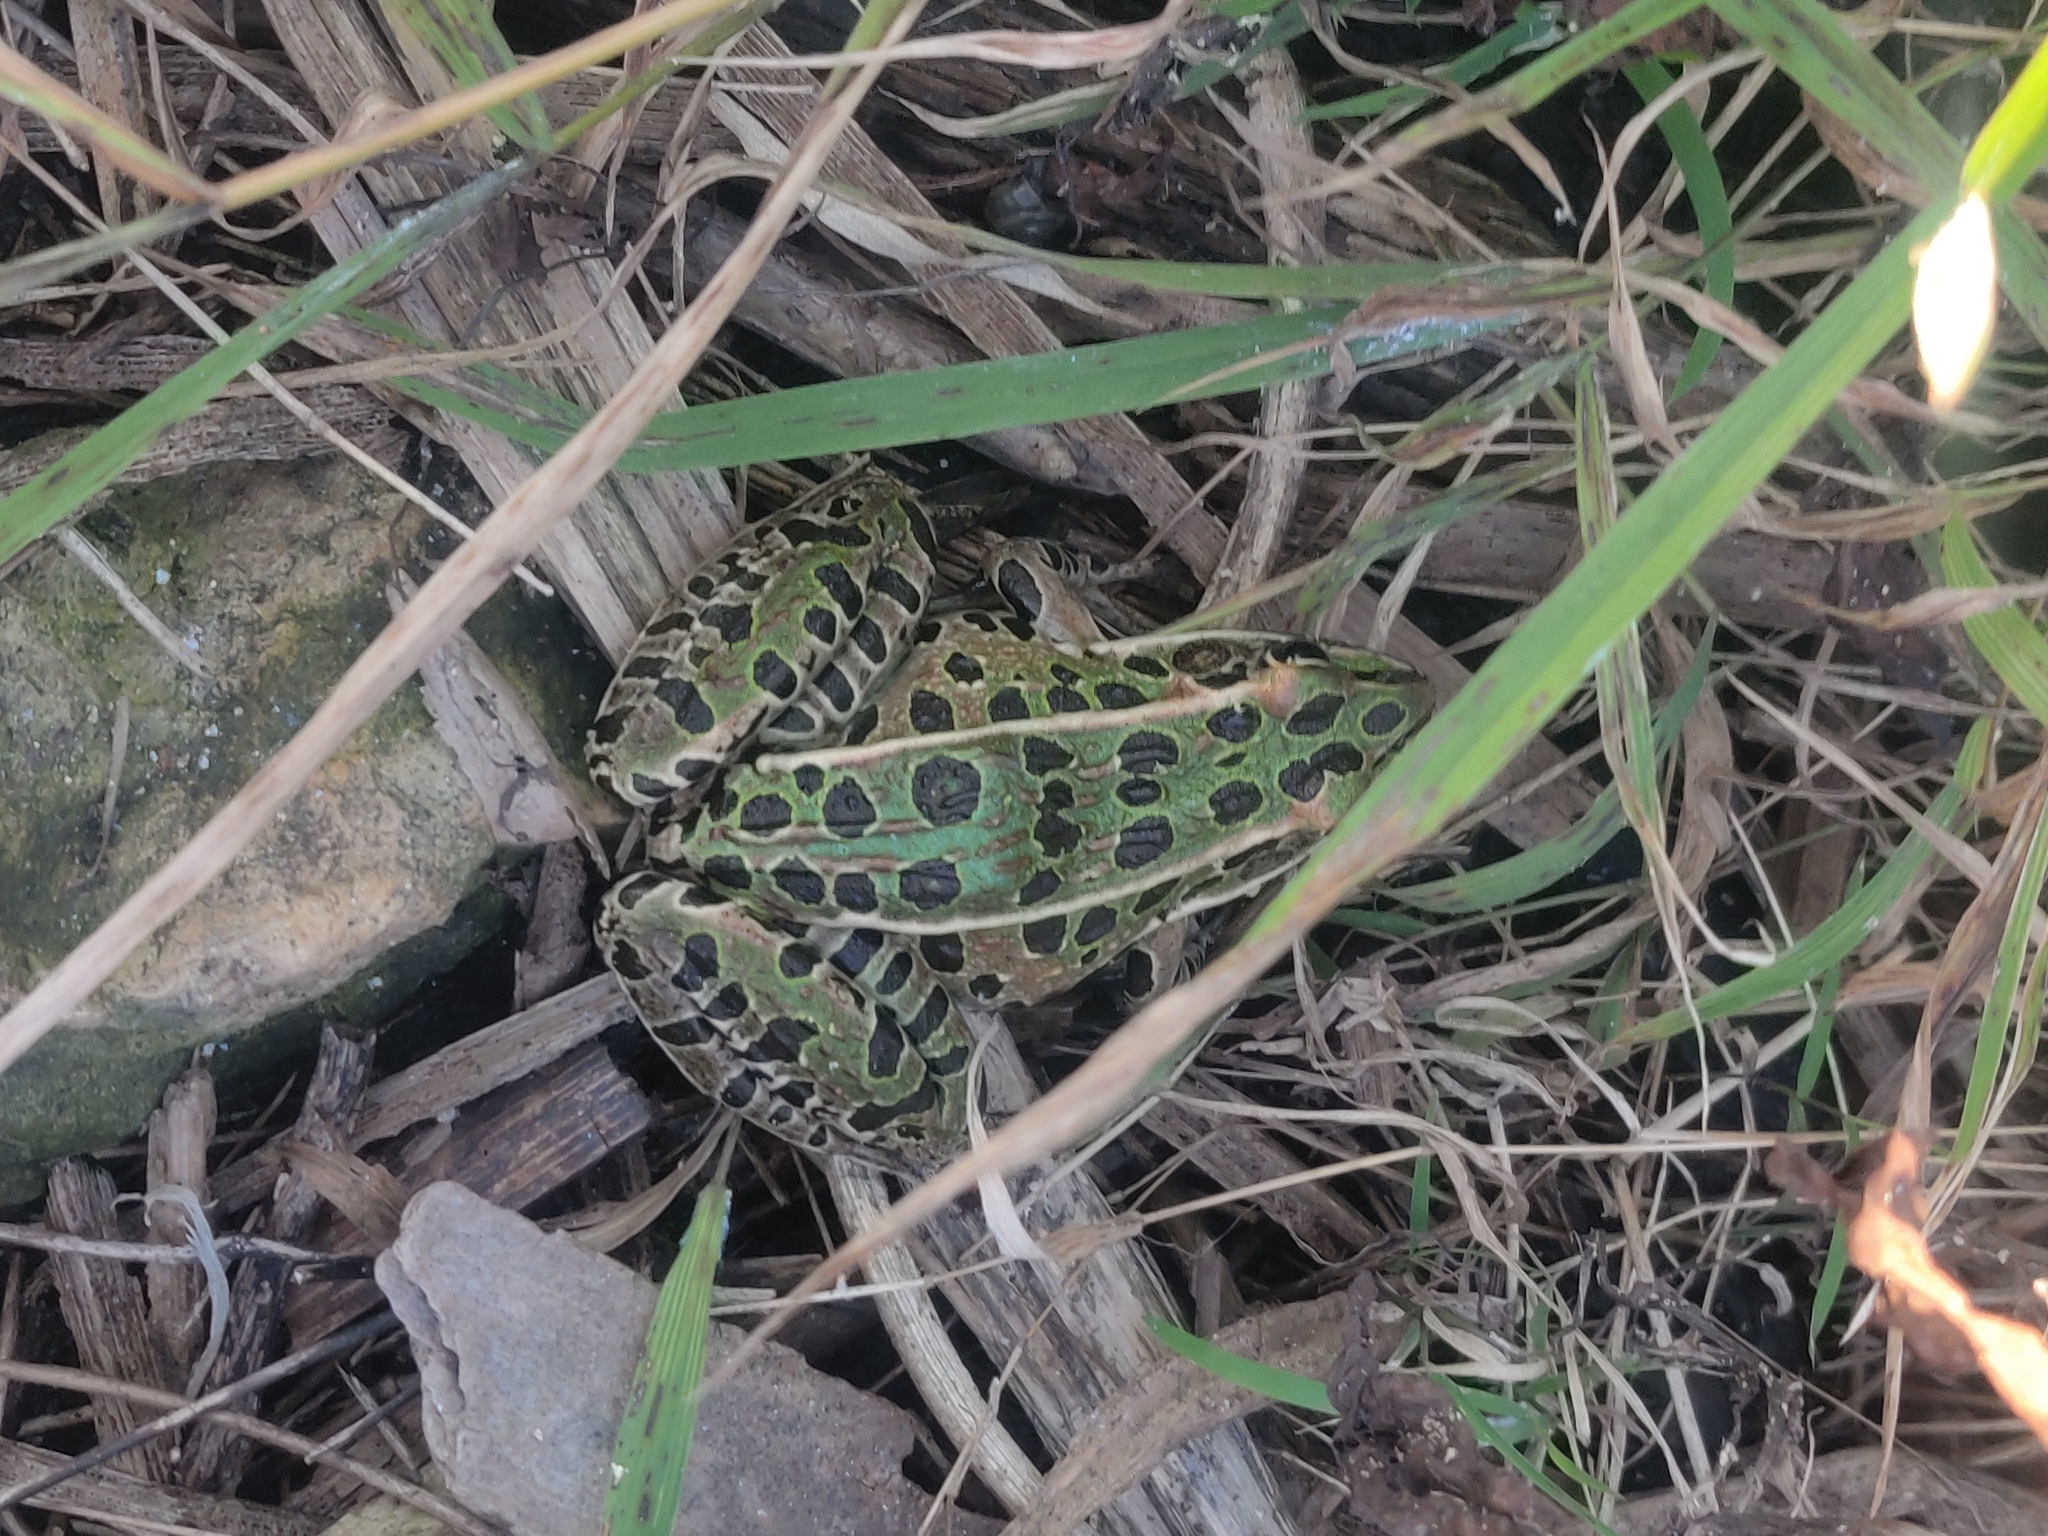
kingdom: Animalia
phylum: Chordata
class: Amphibia
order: Anura
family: Ranidae
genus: Lithobates
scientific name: Lithobates pipiens
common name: Northern leopard frog
